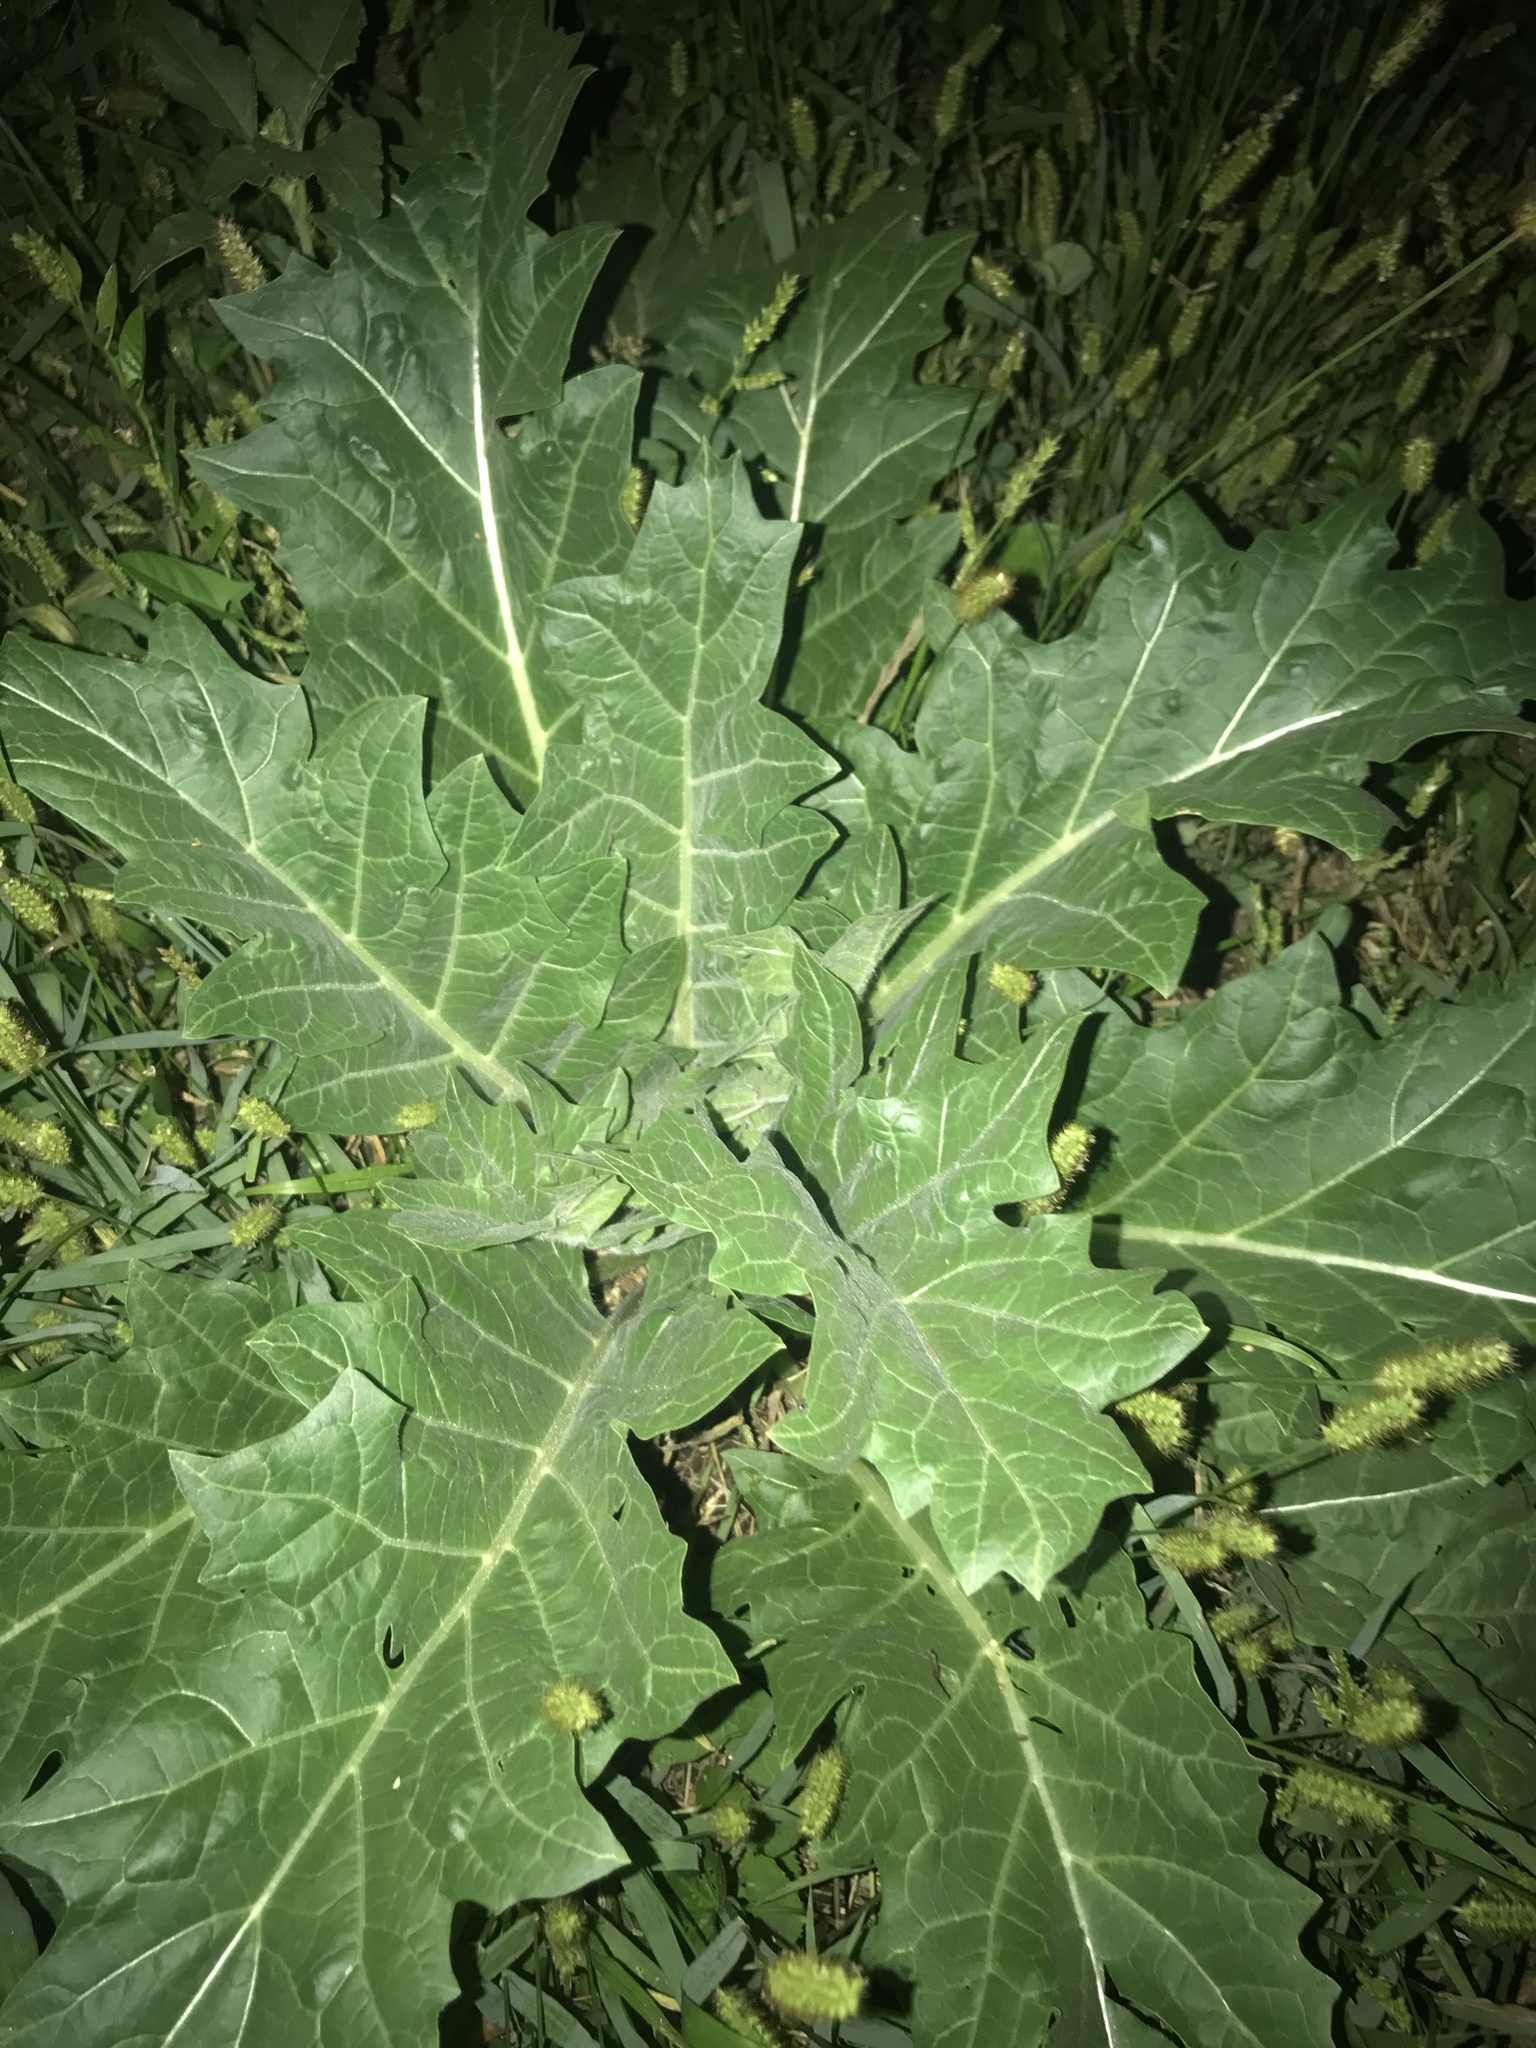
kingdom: Plantae
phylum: Tracheophyta
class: Magnoliopsida
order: Solanales
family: Solanaceae
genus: Hyoscyamus
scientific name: Hyoscyamus niger
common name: Henbane
